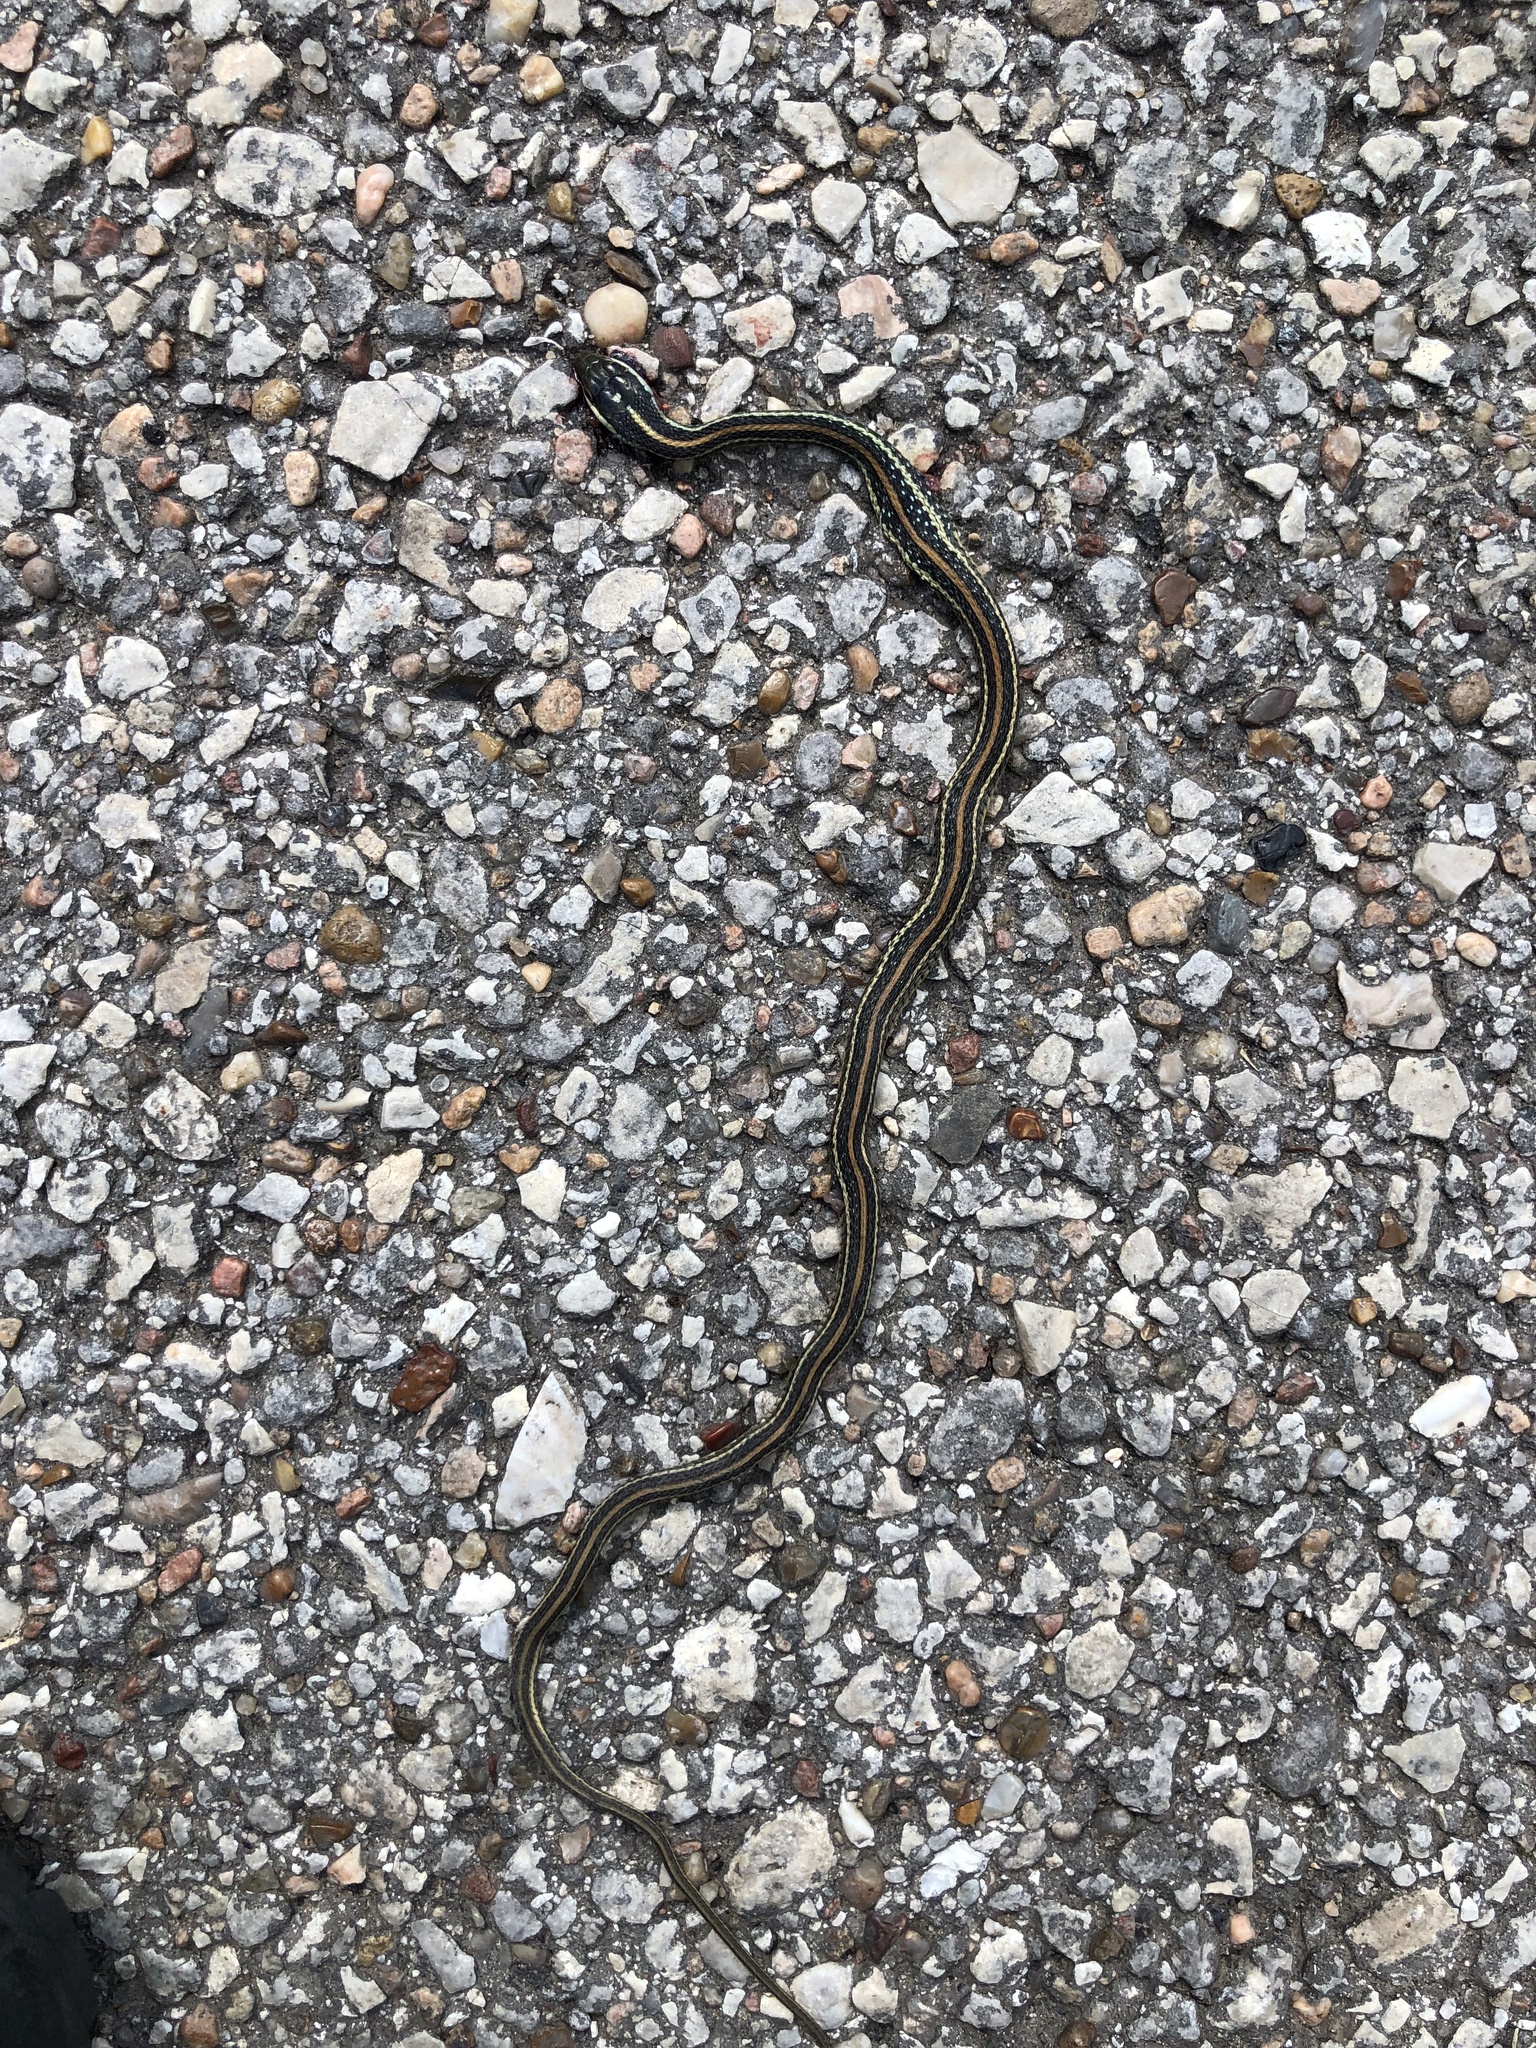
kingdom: Animalia
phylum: Chordata
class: Squamata
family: Colubridae
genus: Thamnophis
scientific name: Thamnophis proximus
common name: Western ribbon snake
